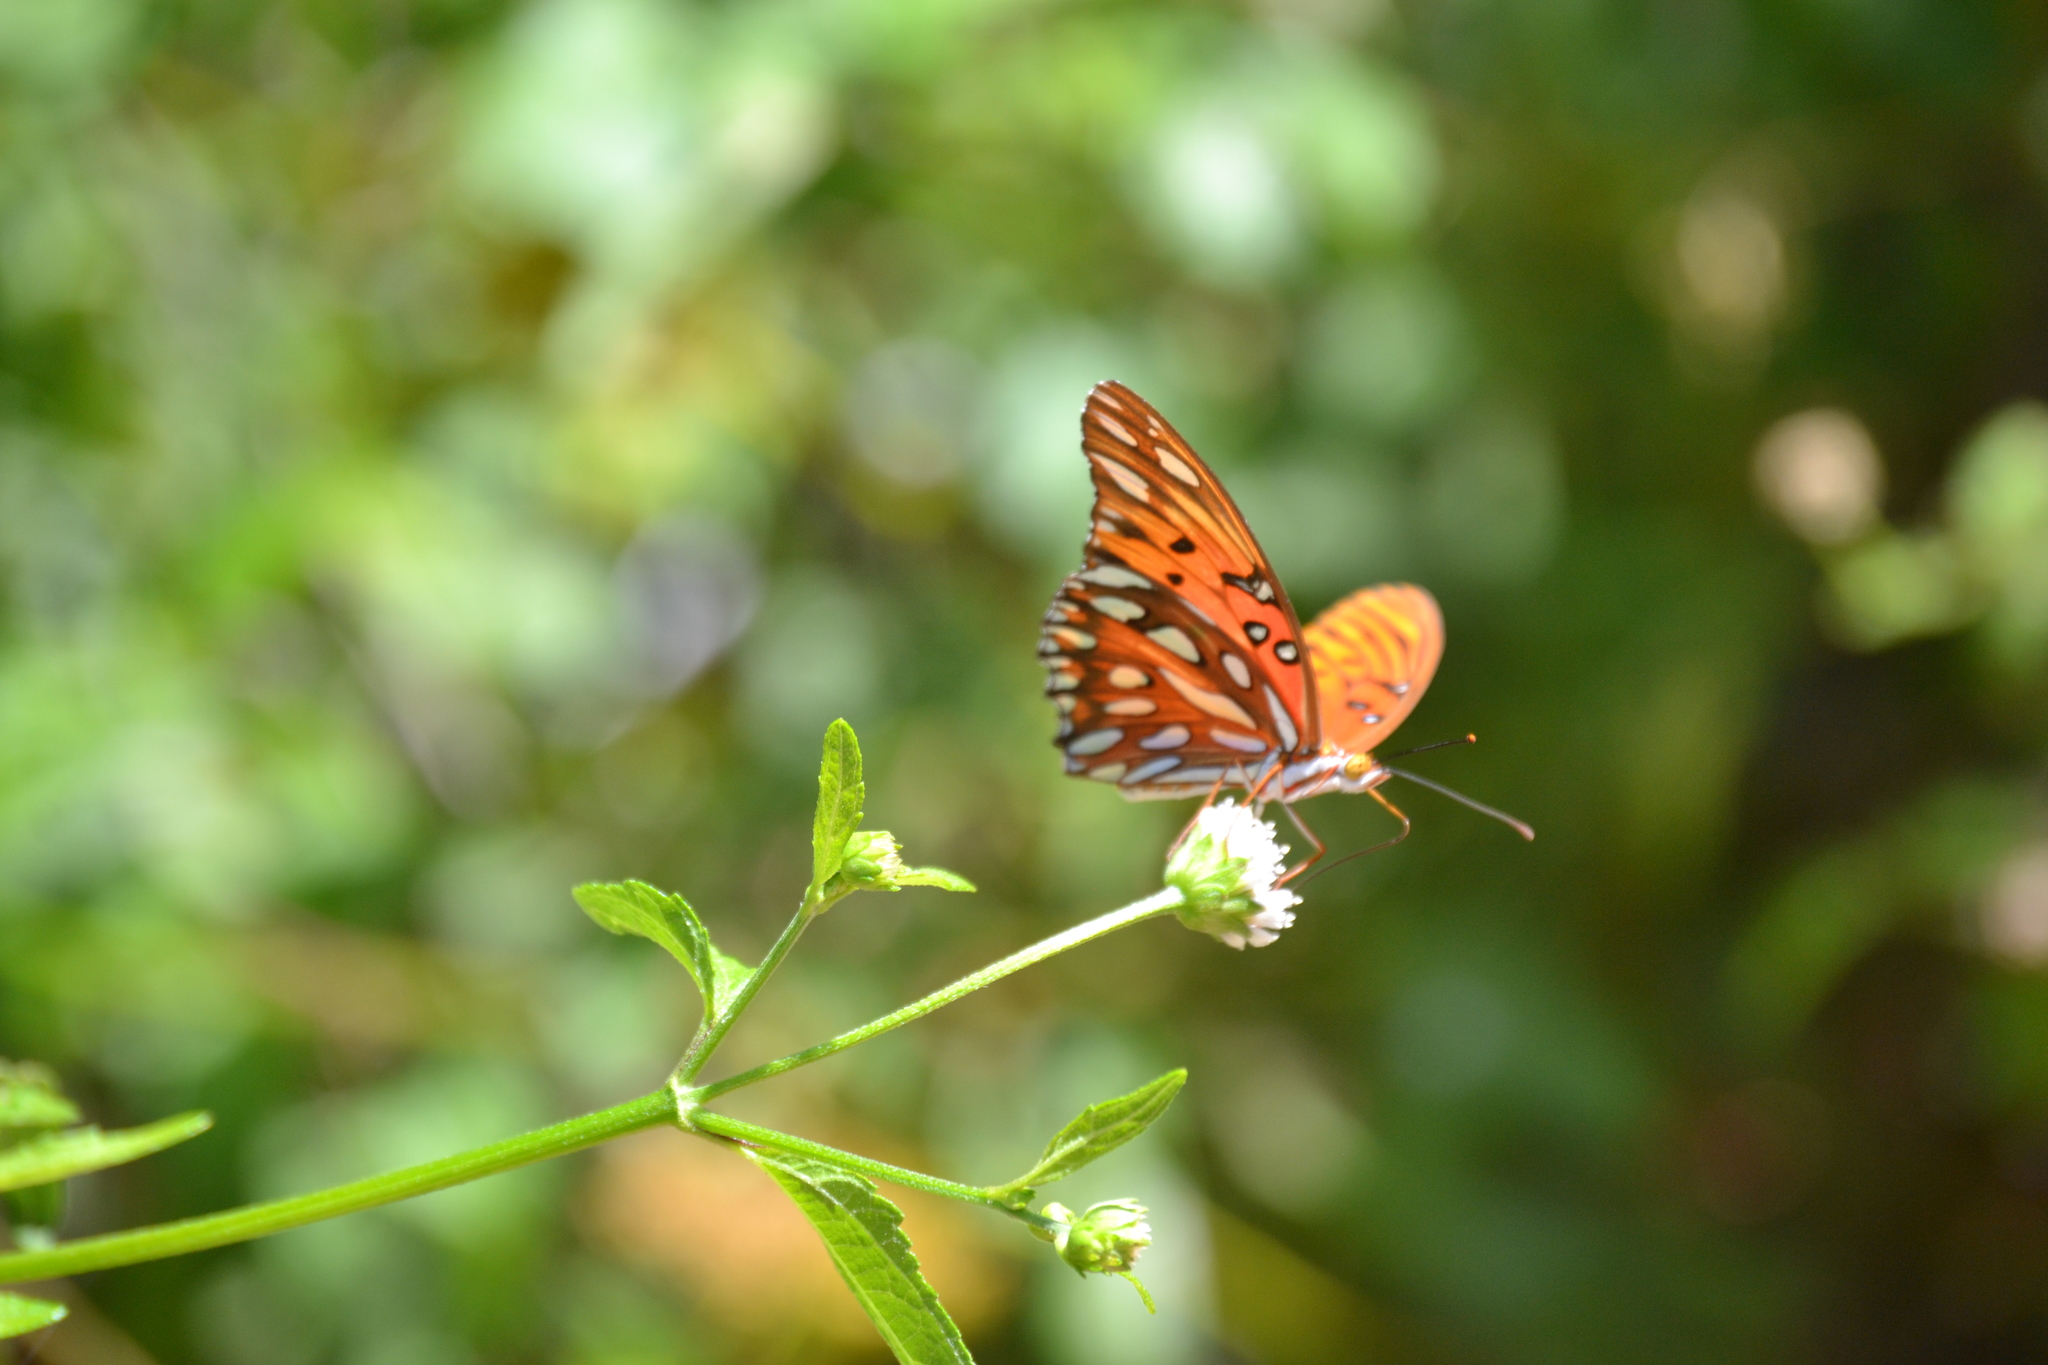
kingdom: Animalia
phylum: Arthropoda
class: Insecta
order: Lepidoptera
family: Nymphalidae
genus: Dione
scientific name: Dione vanillae
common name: Gulf fritillary
